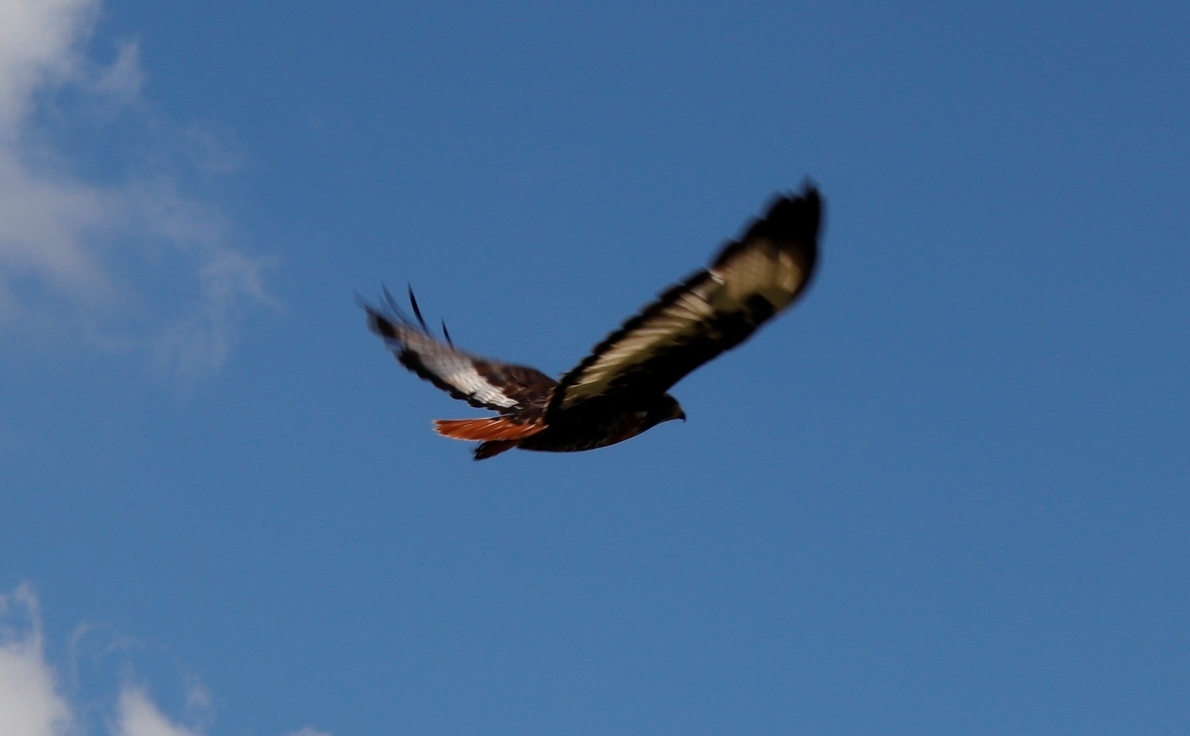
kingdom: Animalia
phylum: Chordata
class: Aves
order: Accipitriformes
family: Accipitridae
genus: Buteo
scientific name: Buteo rufofuscus
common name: Jackal buzzard
